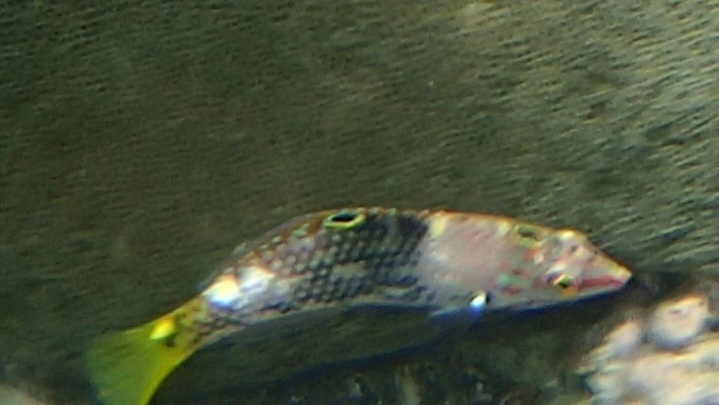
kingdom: Animalia
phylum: Chordata
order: Perciformes
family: Labridae
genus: Halichoeres
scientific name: Halichoeres hortulanus
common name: Checkerboard wrasse
